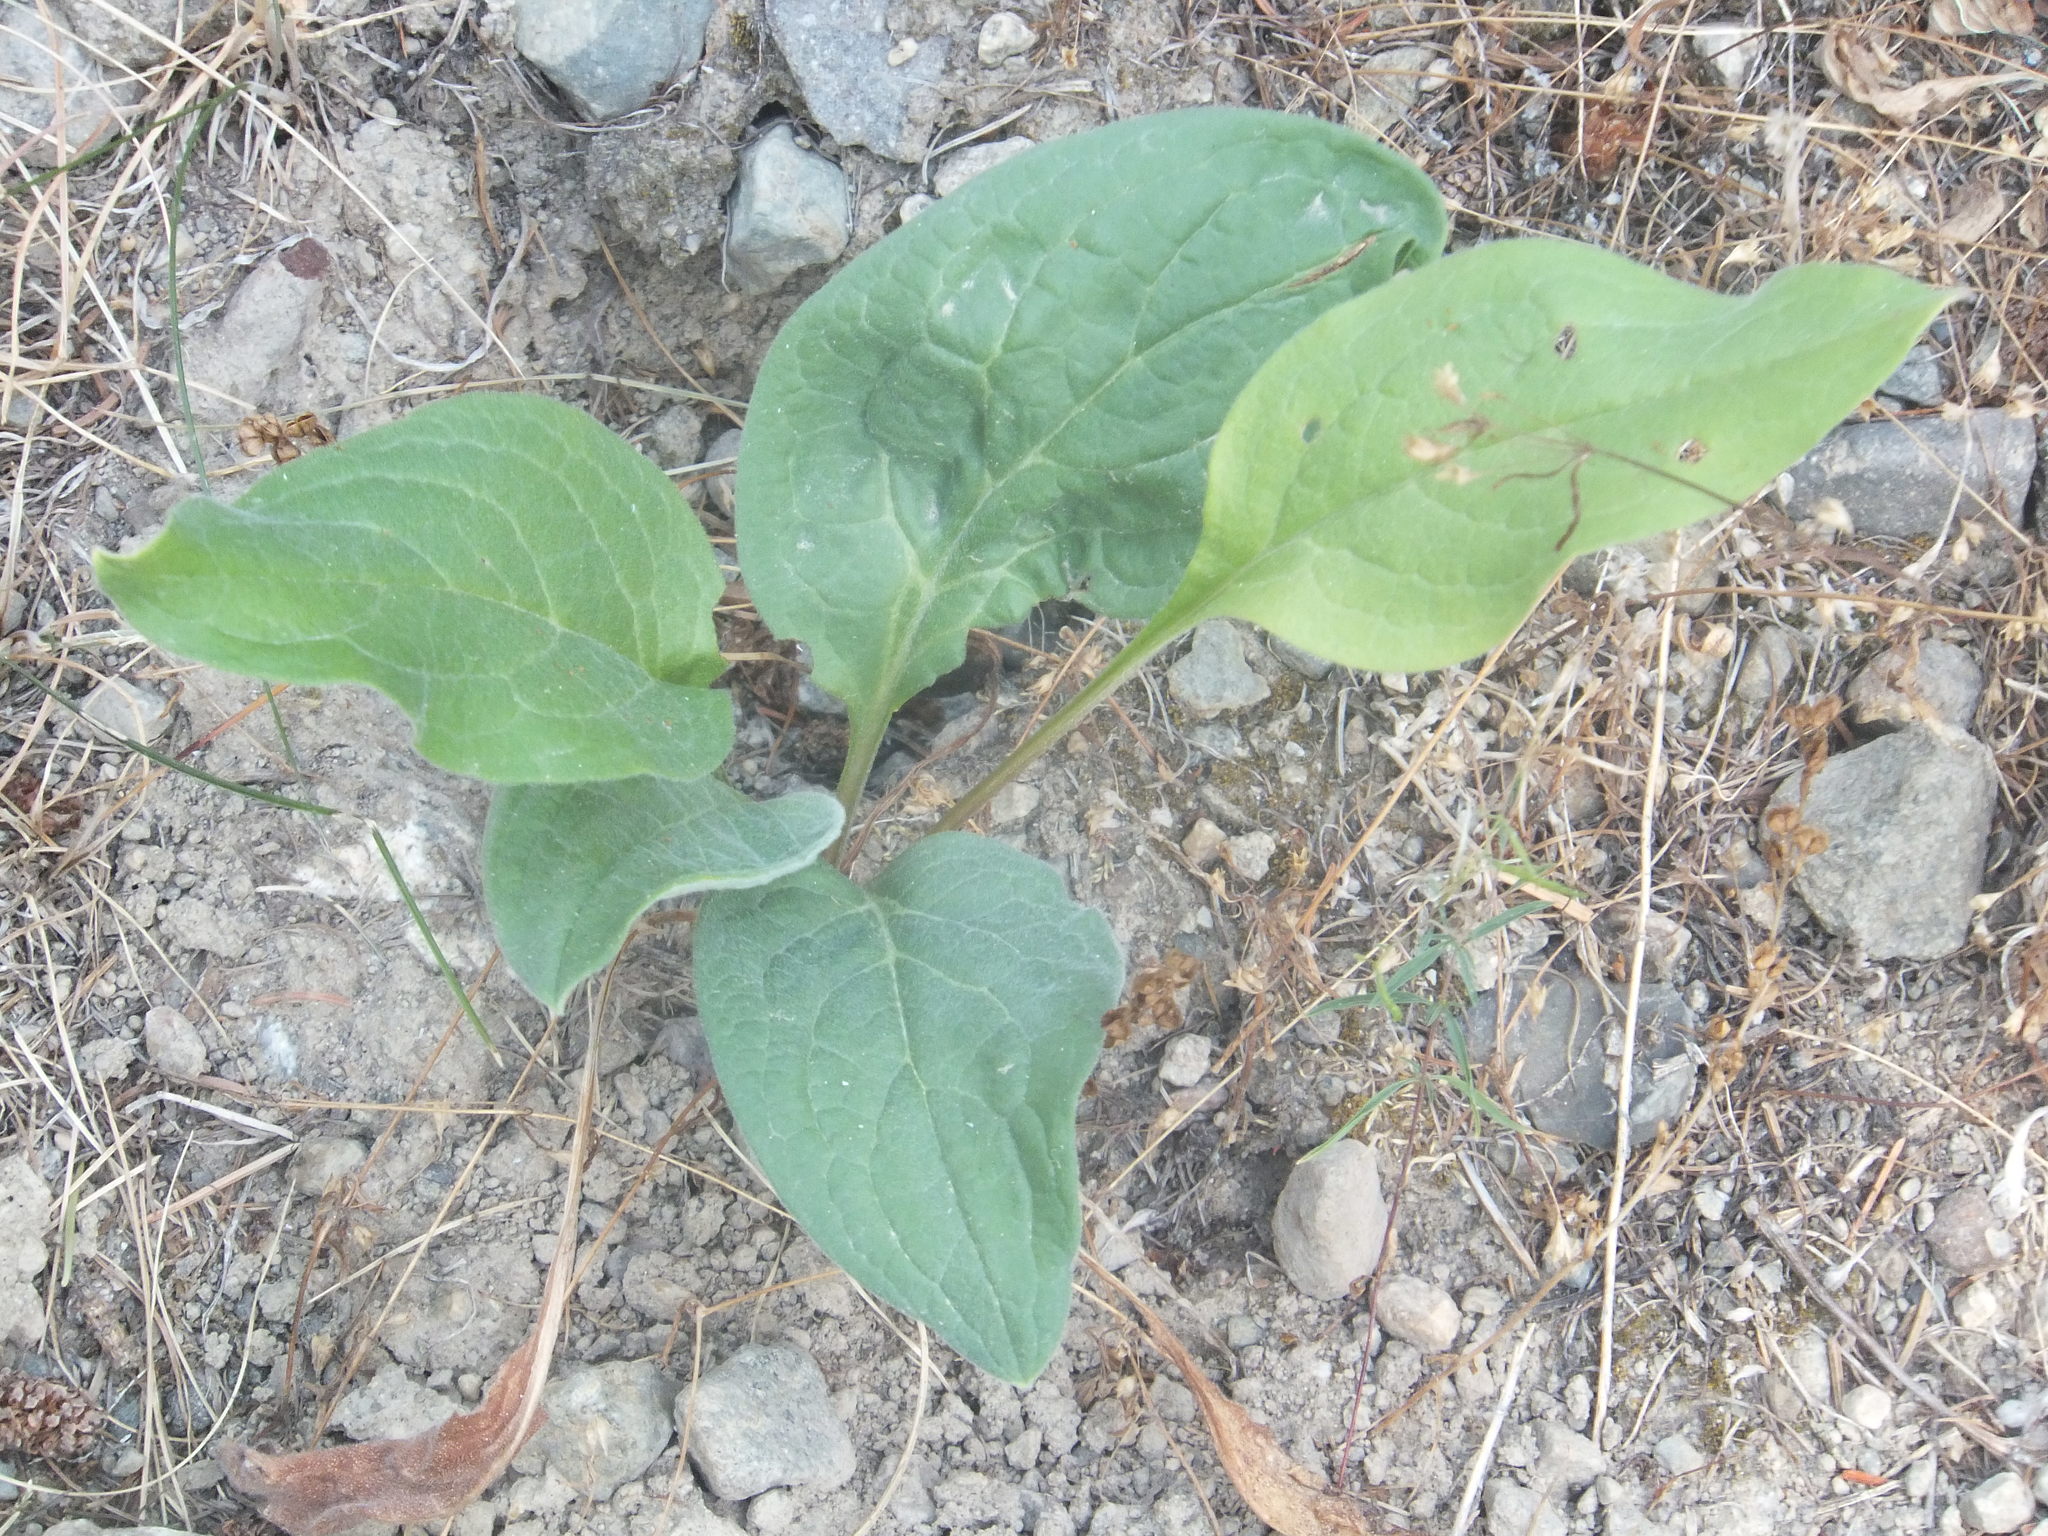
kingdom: Plantae
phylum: Tracheophyta
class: Magnoliopsida
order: Boraginales
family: Boraginaceae
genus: Cynoglossum
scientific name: Cynoglossum officinale
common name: Hound's-tongue
